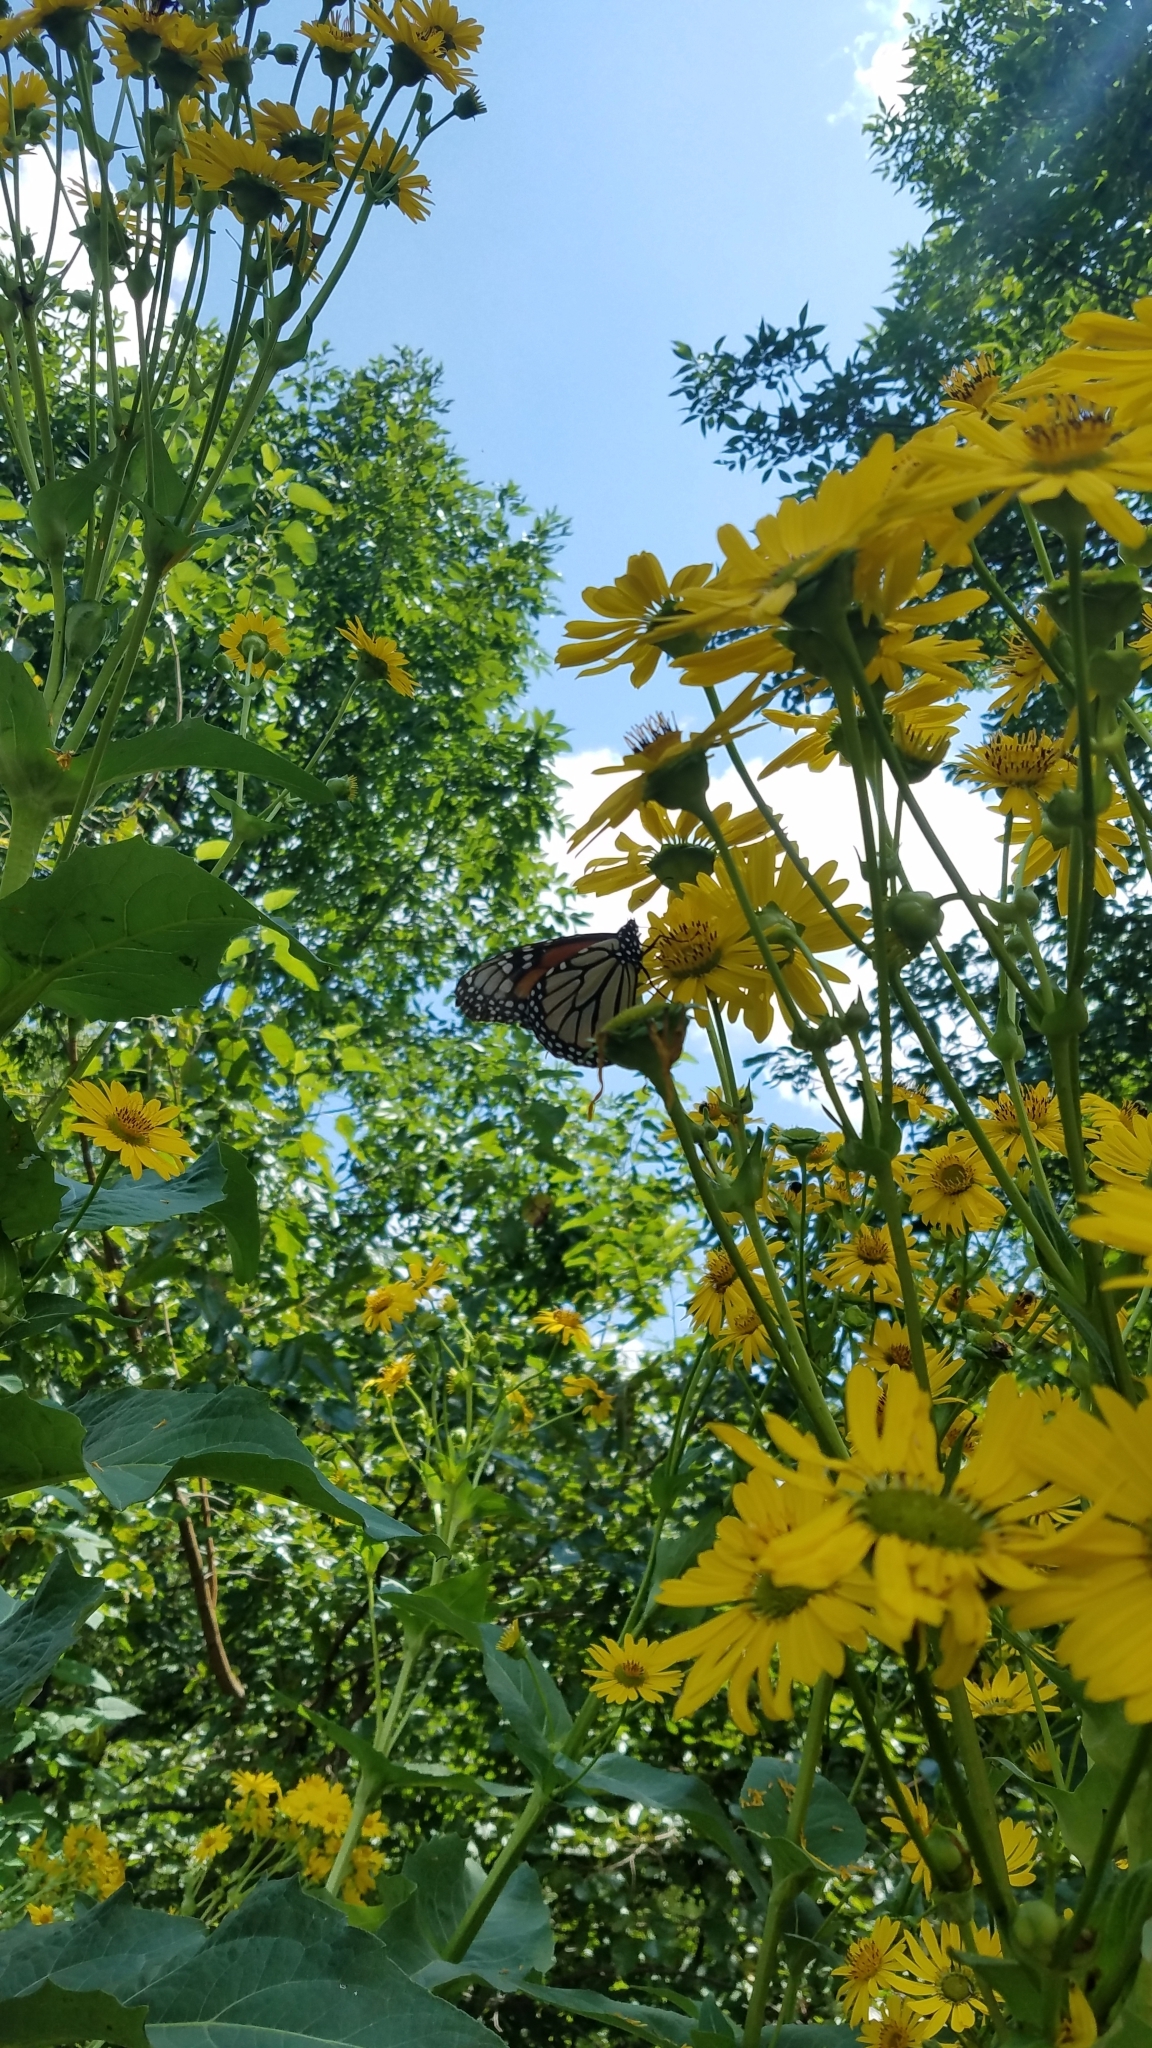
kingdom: Animalia
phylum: Arthropoda
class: Insecta
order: Lepidoptera
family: Nymphalidae
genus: Danaus
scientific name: Danaus plexippus
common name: Monarch
